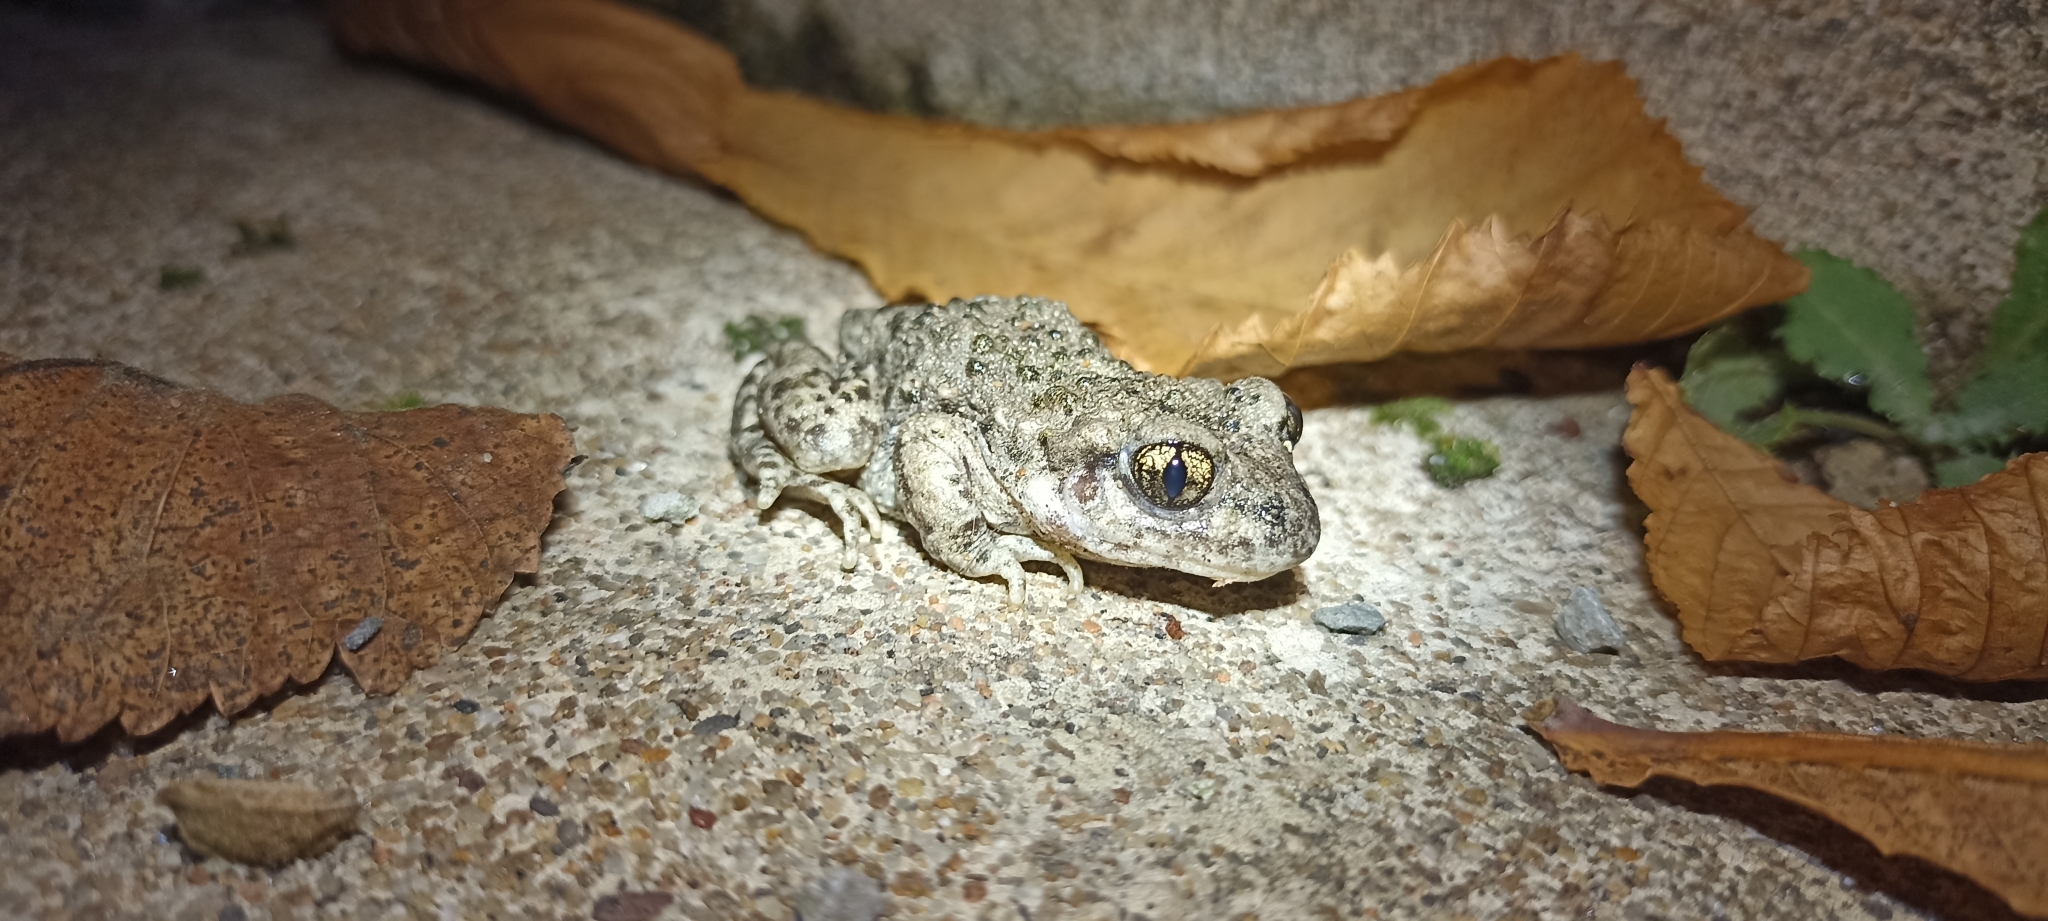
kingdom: Animalia
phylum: Chordata
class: Amphibia
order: Anura
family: Alytidae
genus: Alytes
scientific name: Alytes obstetricans
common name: Midwife toad
